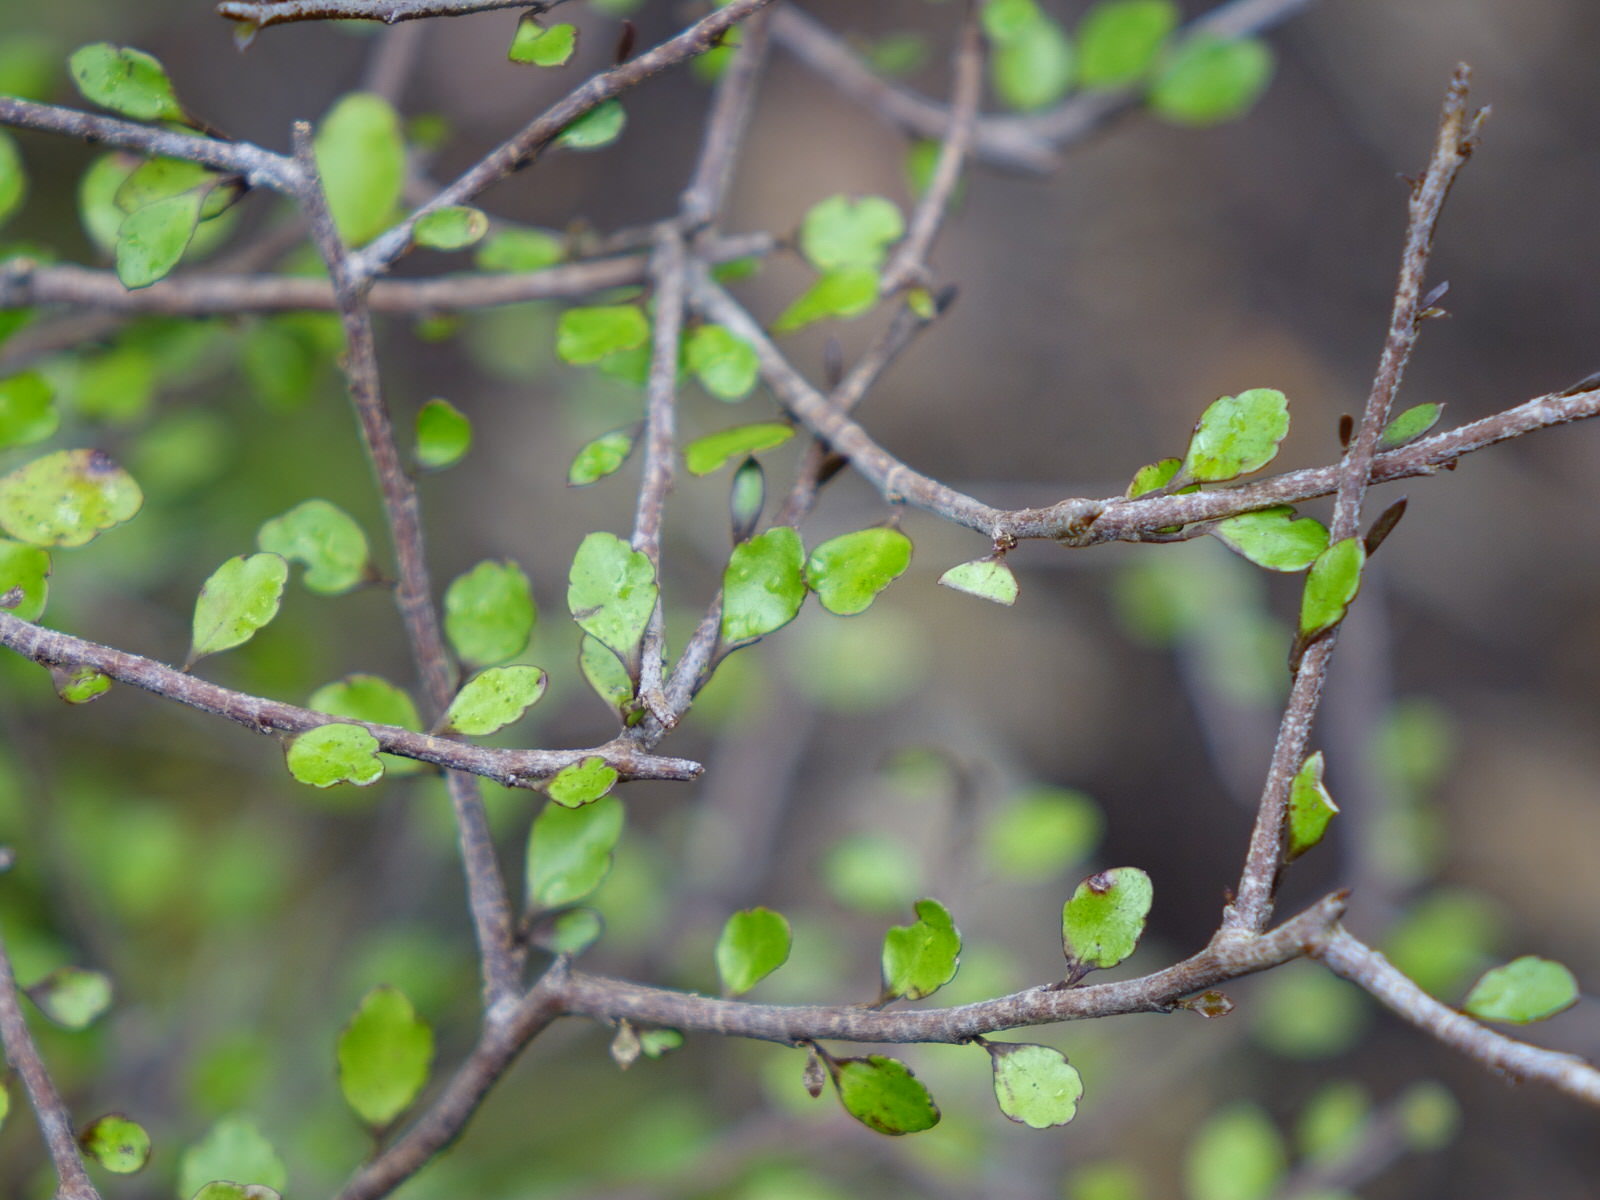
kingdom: Plantae
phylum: Tracheophyta
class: Magnoliopsida
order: Apiales
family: Araliaceae
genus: Raukaua
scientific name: Raukaua anomalus
